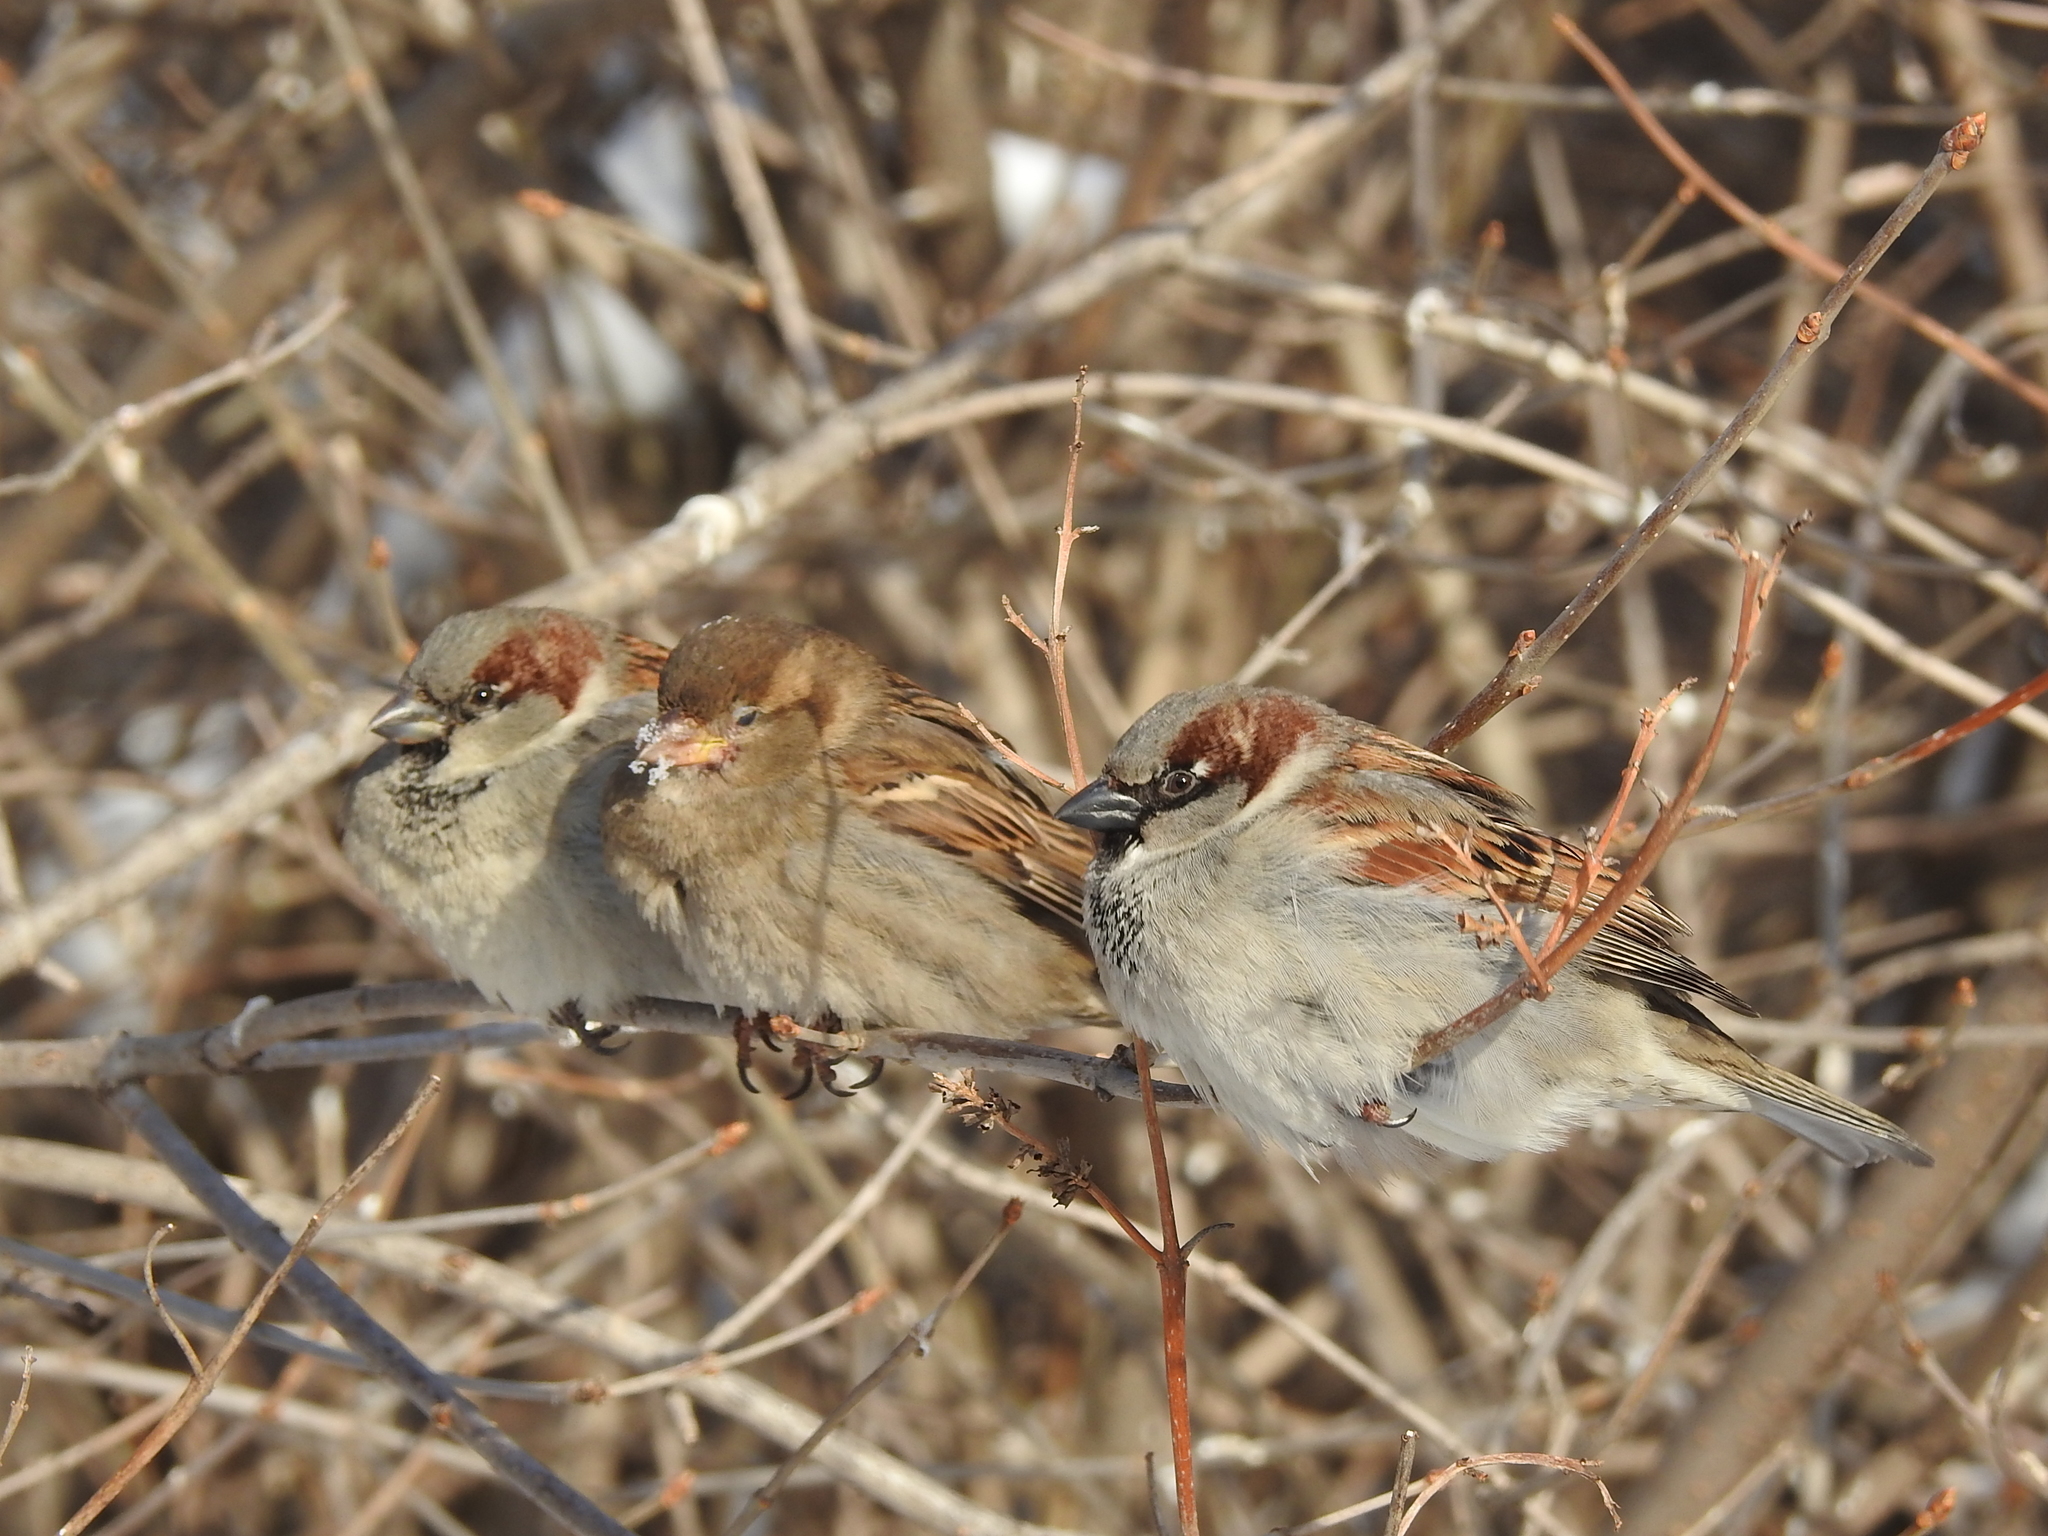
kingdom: Animalia
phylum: Chordata
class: Aves
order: Passeriformes
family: Passeridae
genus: Passer
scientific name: Passer domesticus
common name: House sparrow
